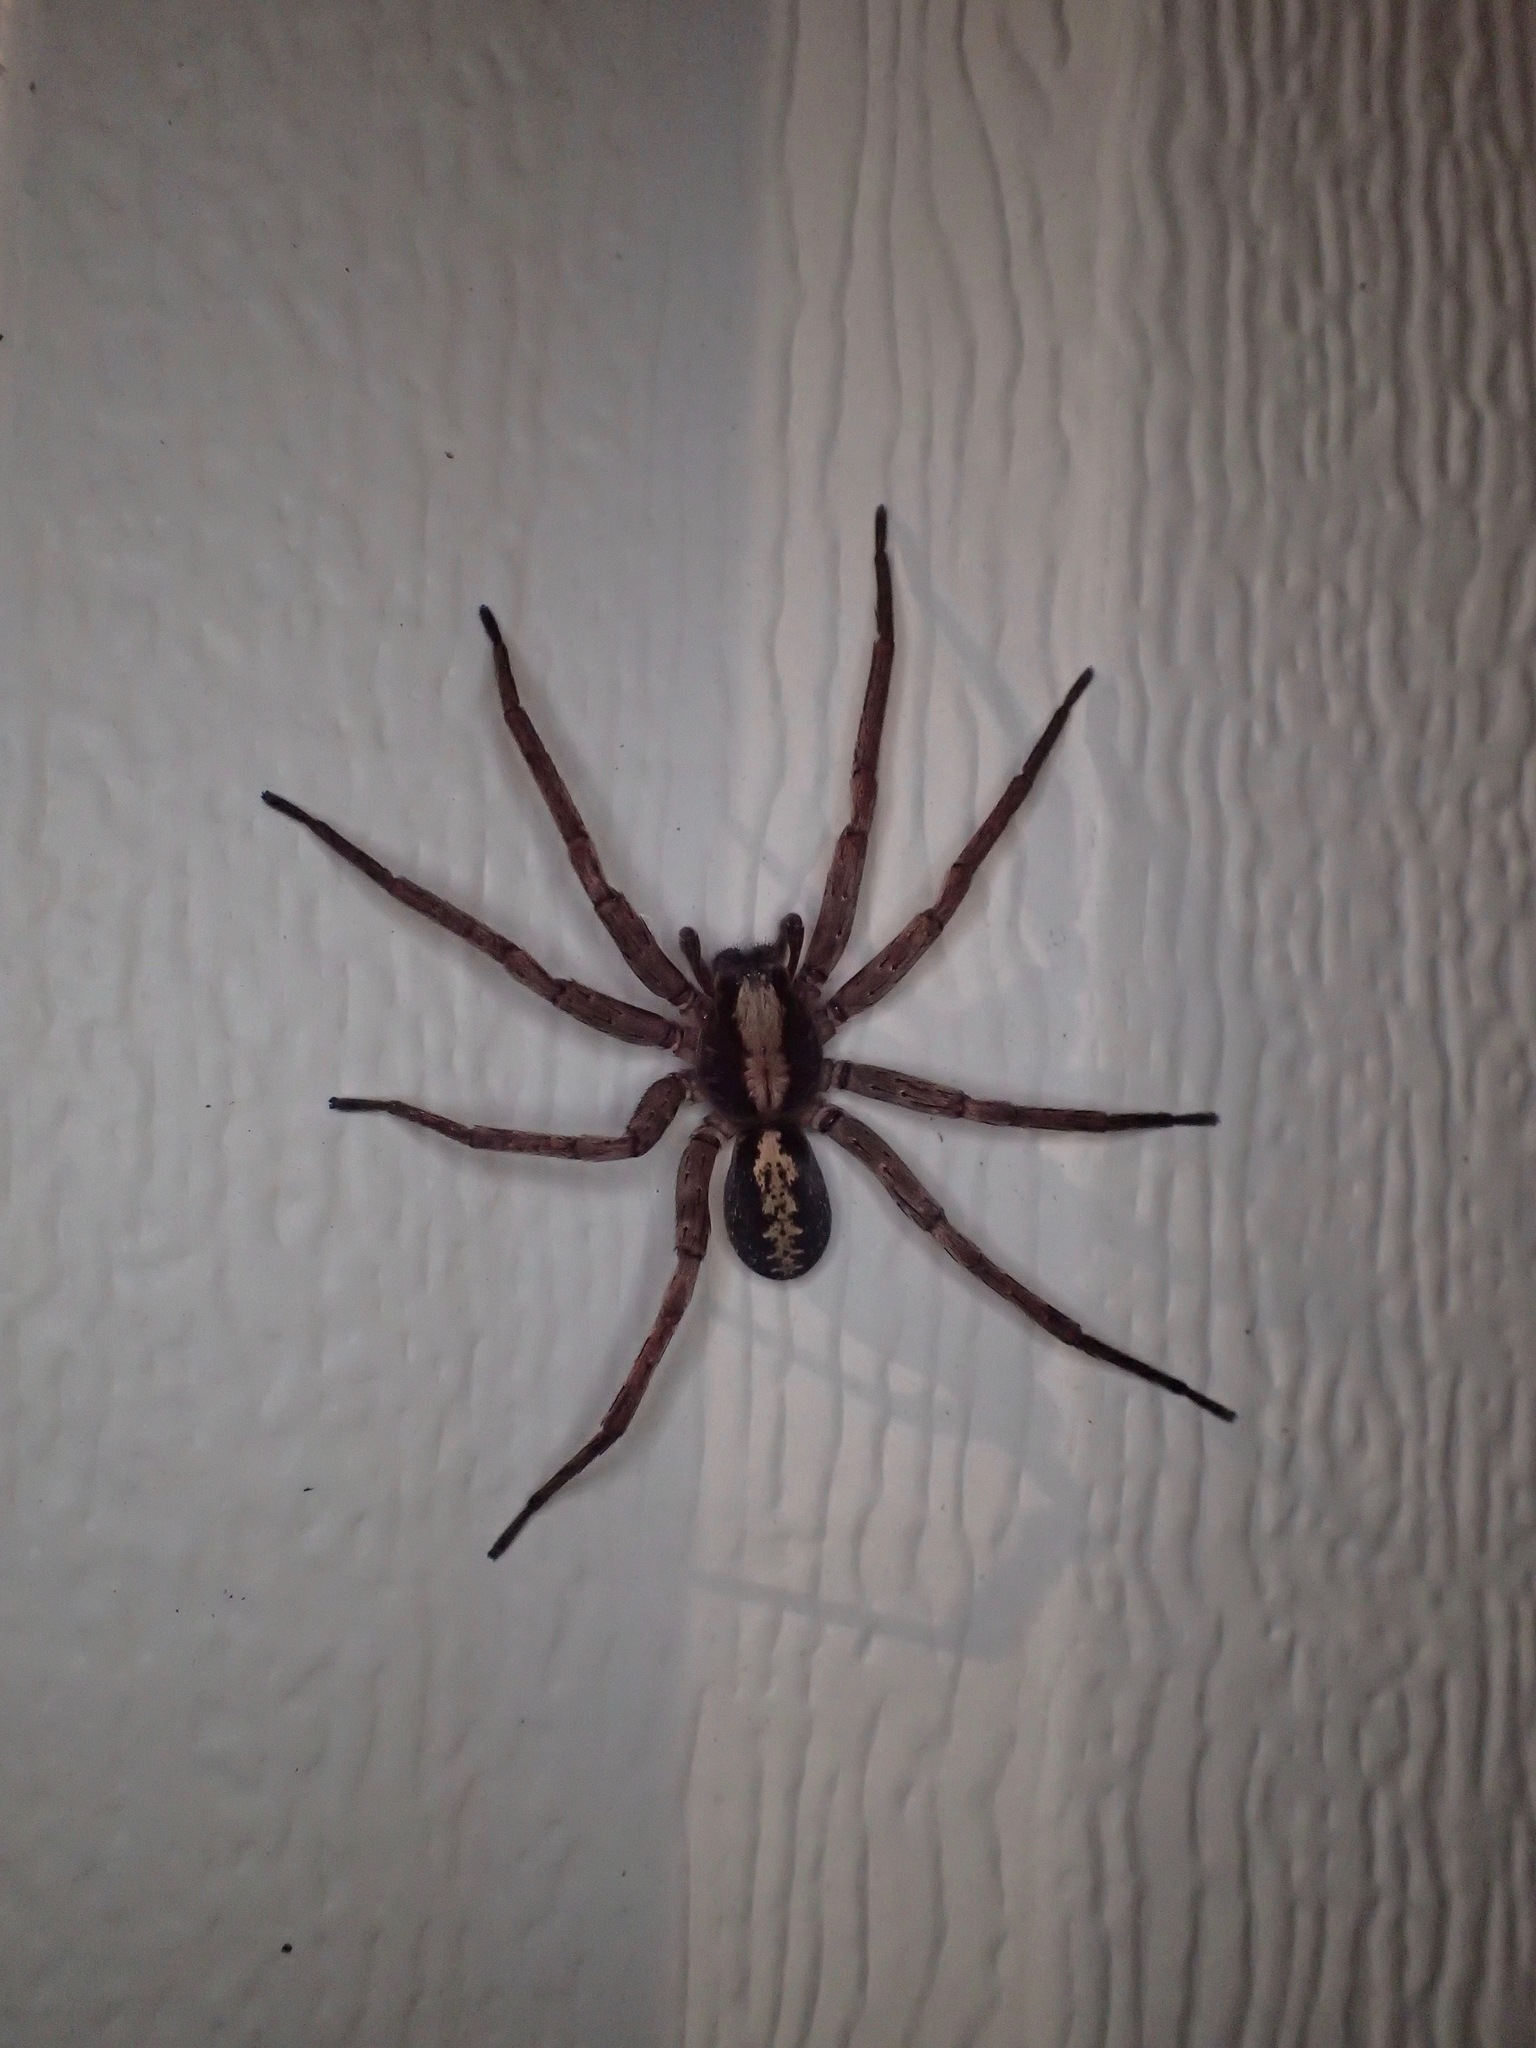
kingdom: Animalia
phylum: Arthropoda
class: Arachnida
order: Araneae
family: Ctenidae
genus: Ctenus
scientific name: Ctenus hibernalis
